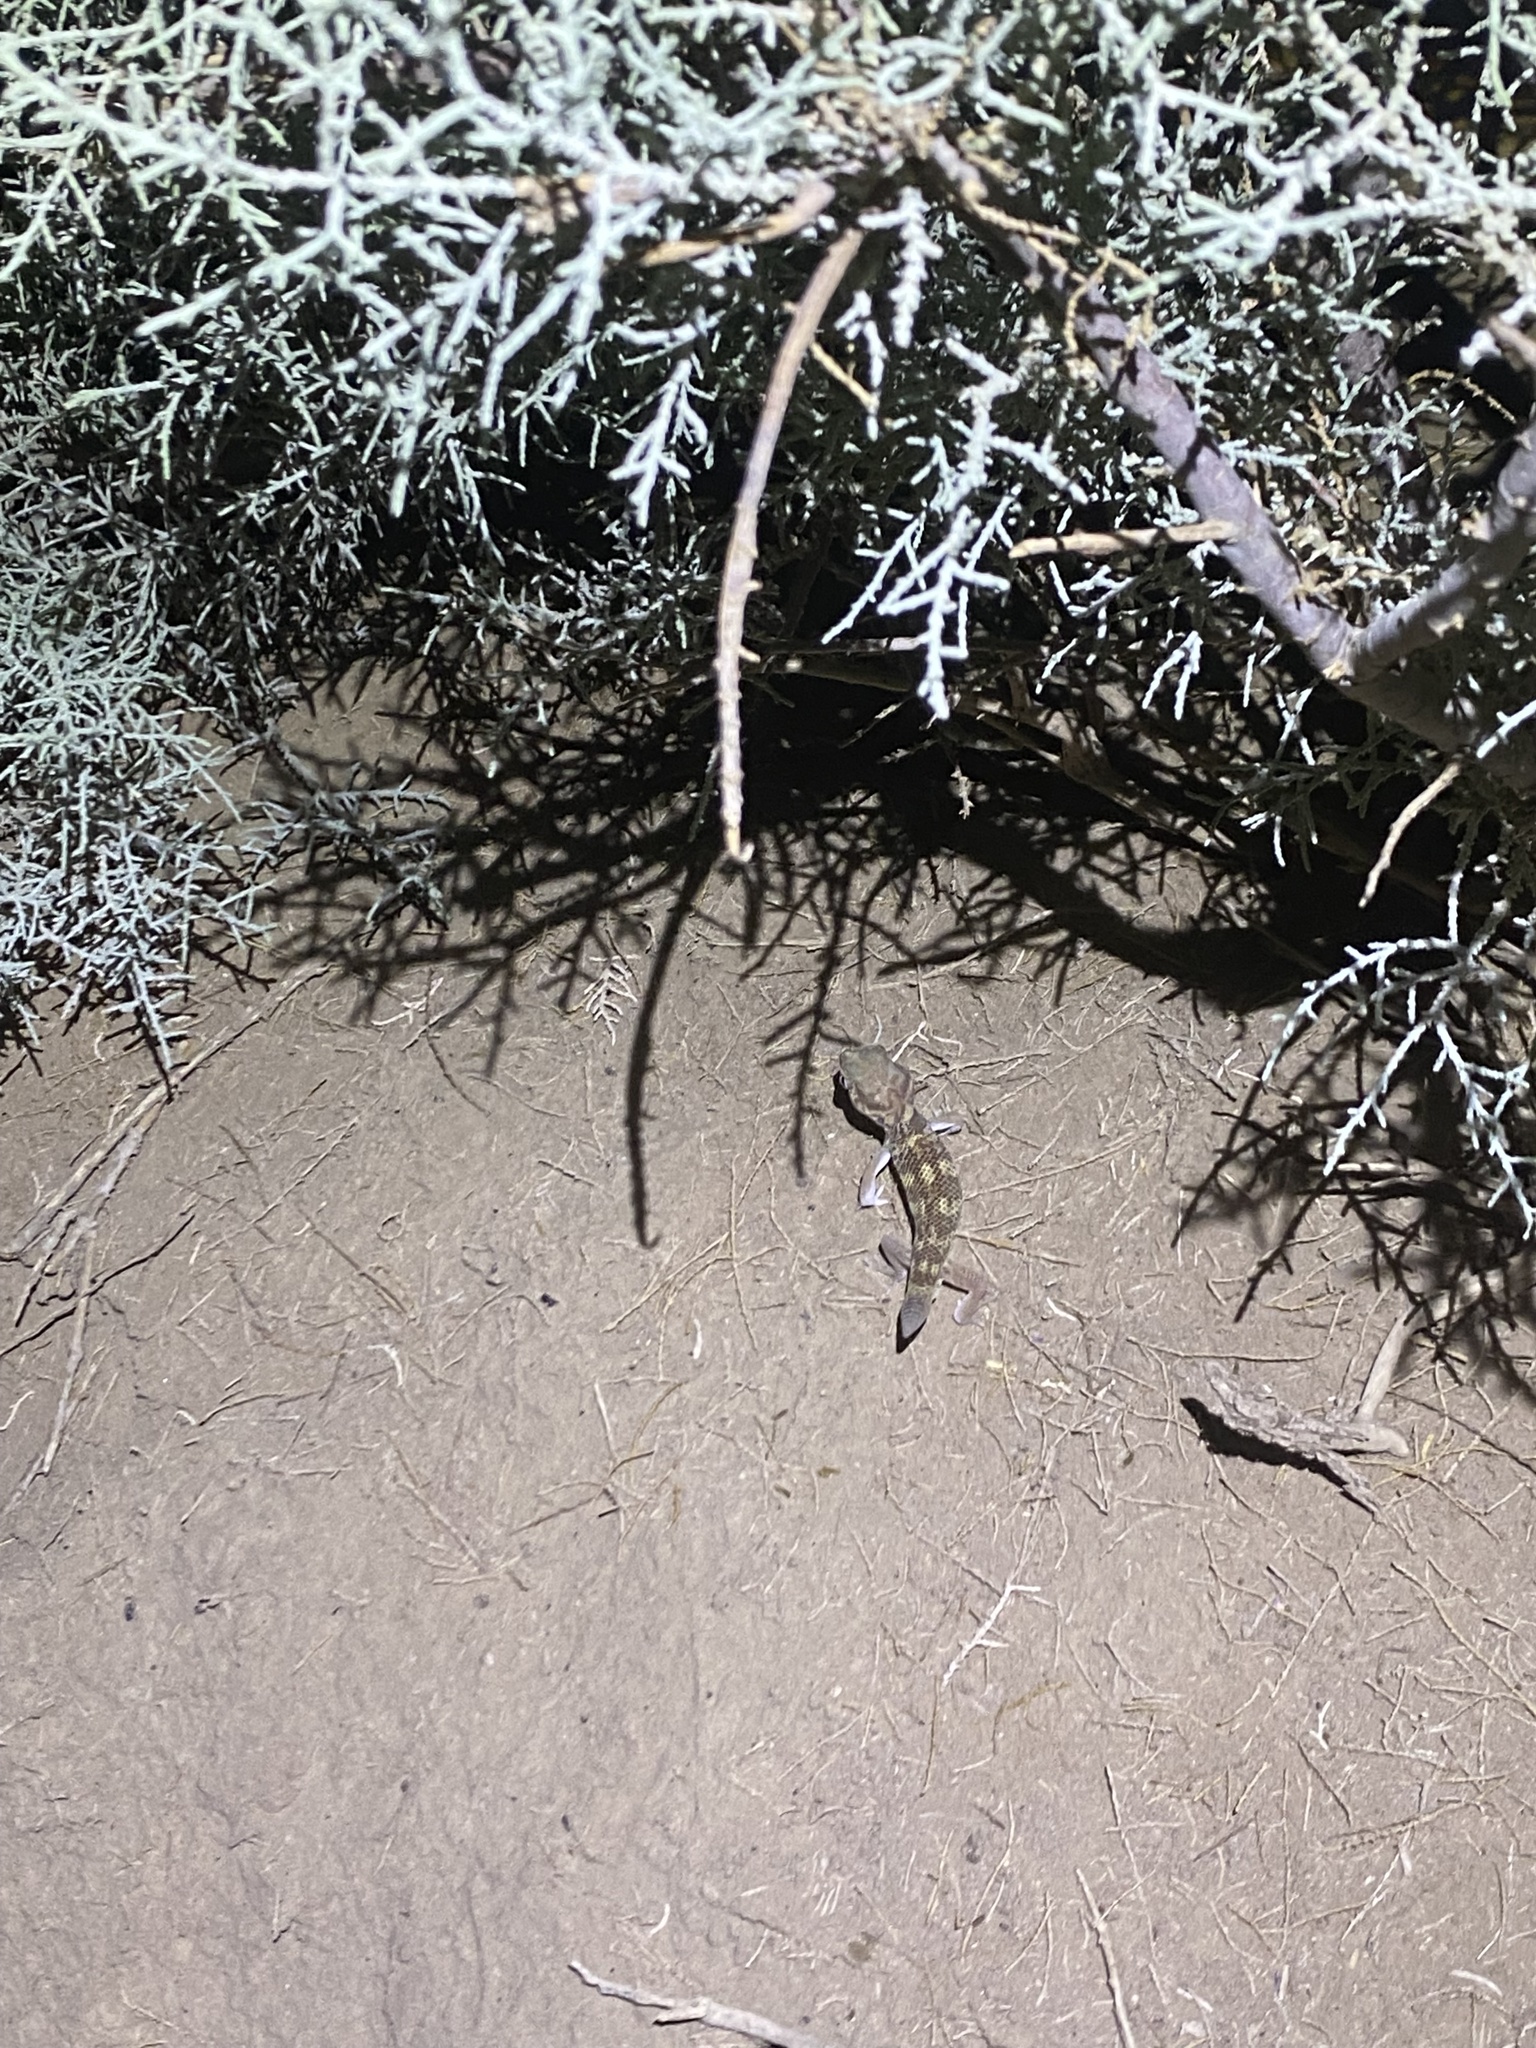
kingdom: Animalia
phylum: Chordata
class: Squamata
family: Sphaerodactylidae
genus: Teratoscincus
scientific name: Teratoscincus bedriagai
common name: Bedriaga's plate-tailed gecko
